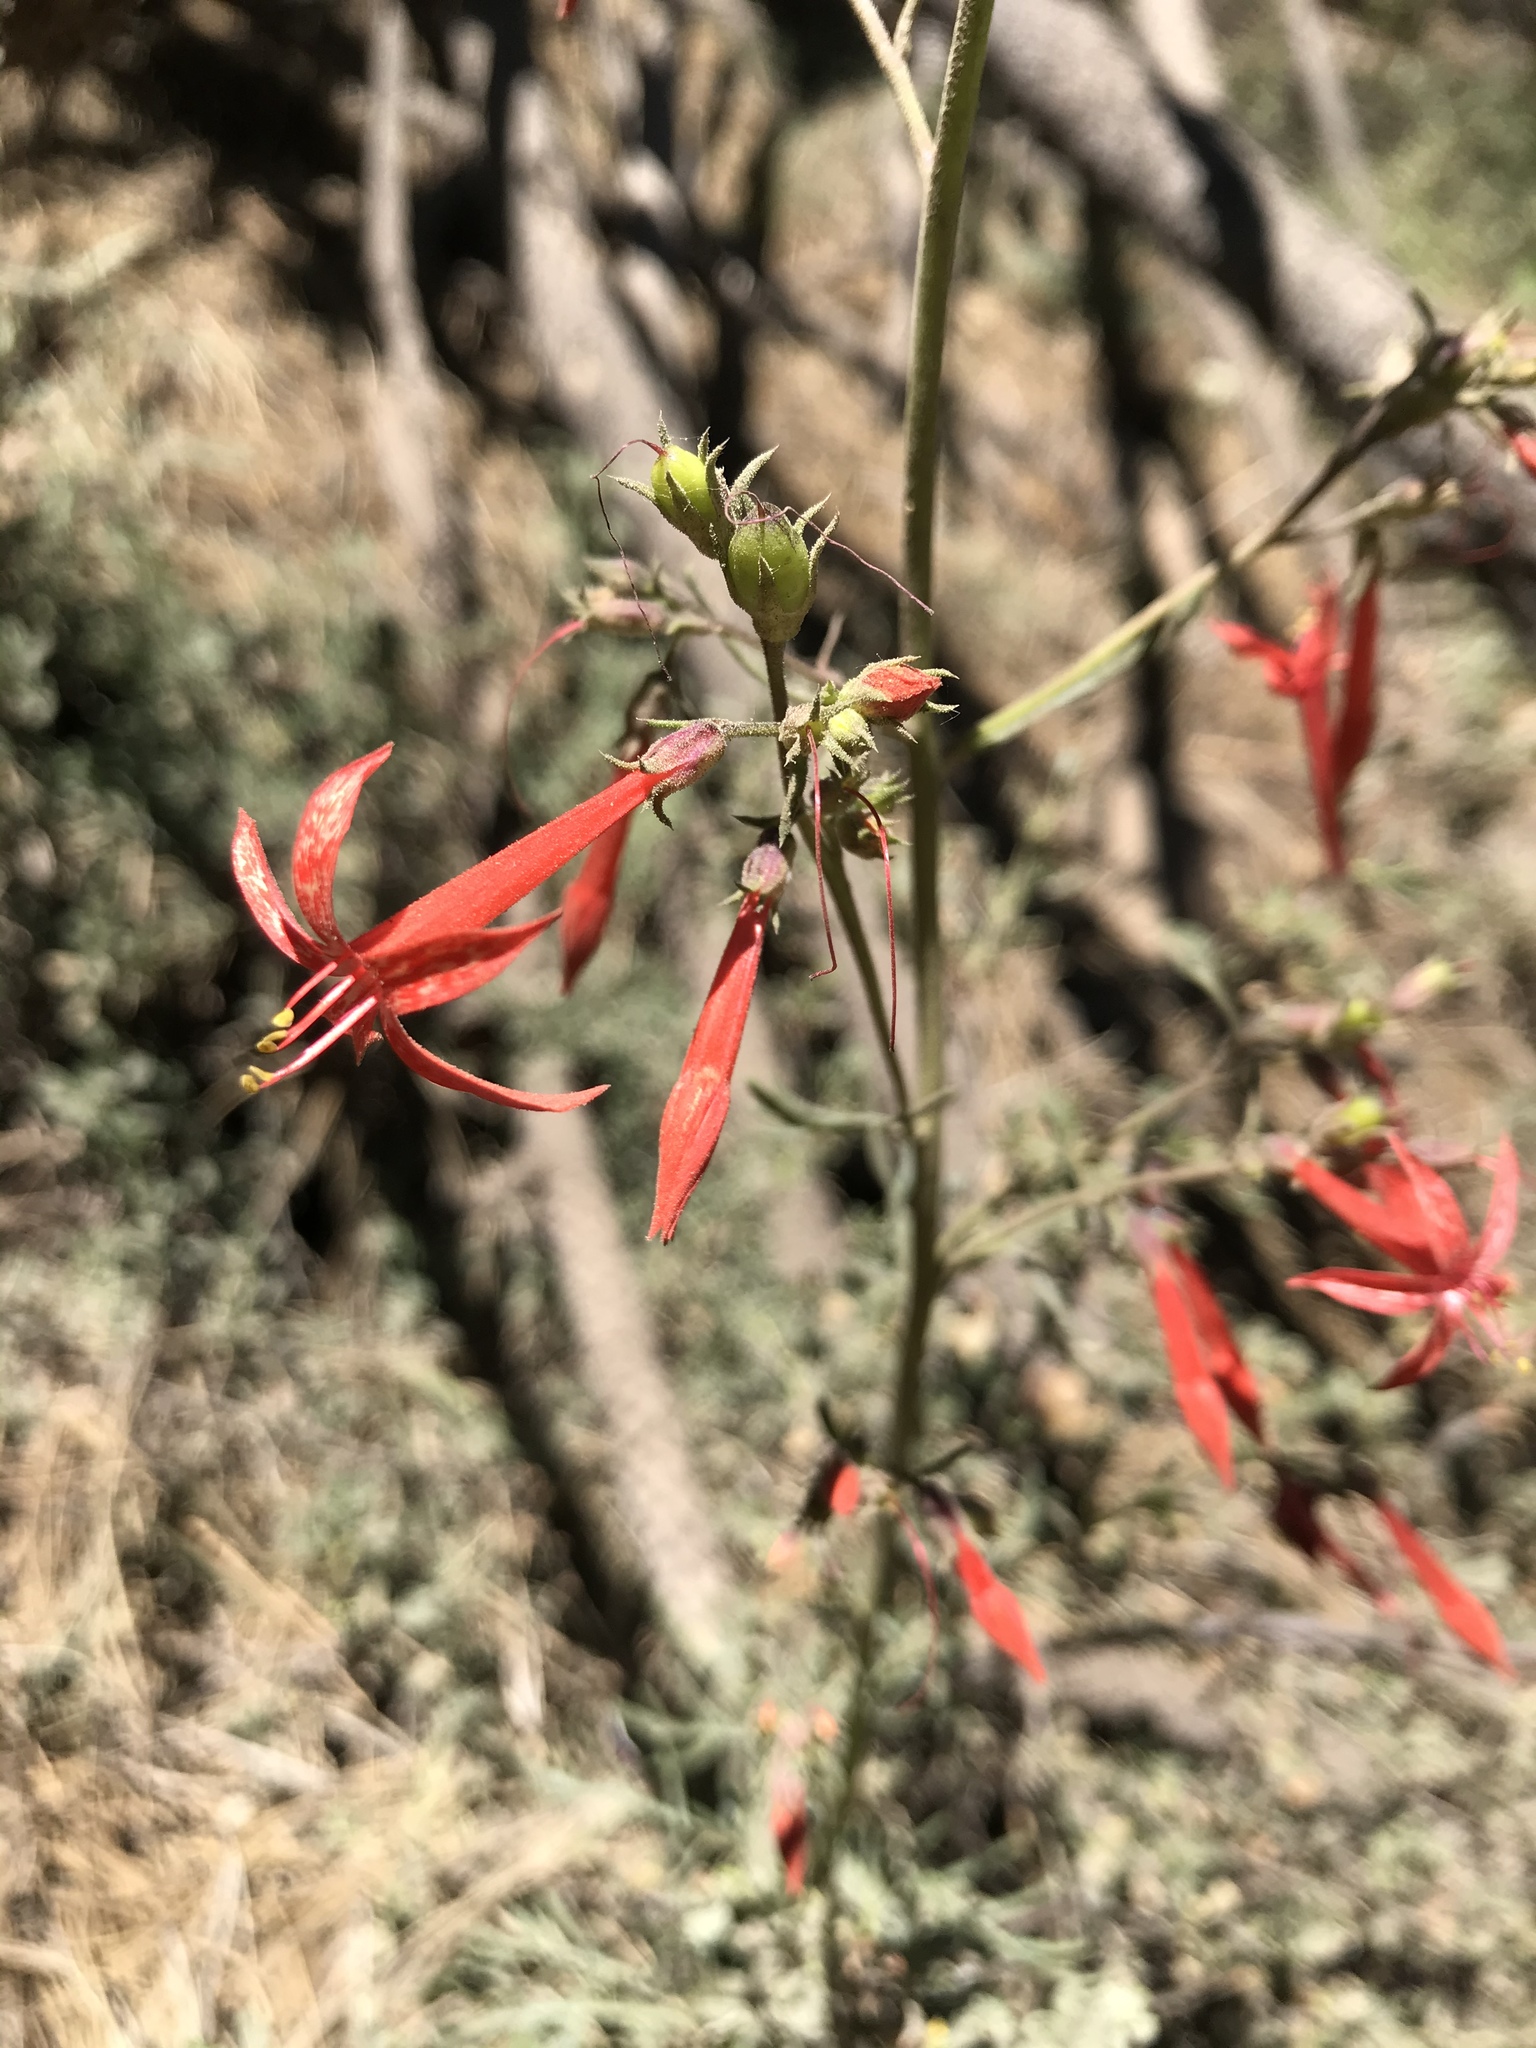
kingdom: Plantae
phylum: Tracheophyta
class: Magnoliopsida
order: Ericales
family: Polemoniaceae
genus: Ipomopsis
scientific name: Ipomopsis aggregata
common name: Scarlet gilia
